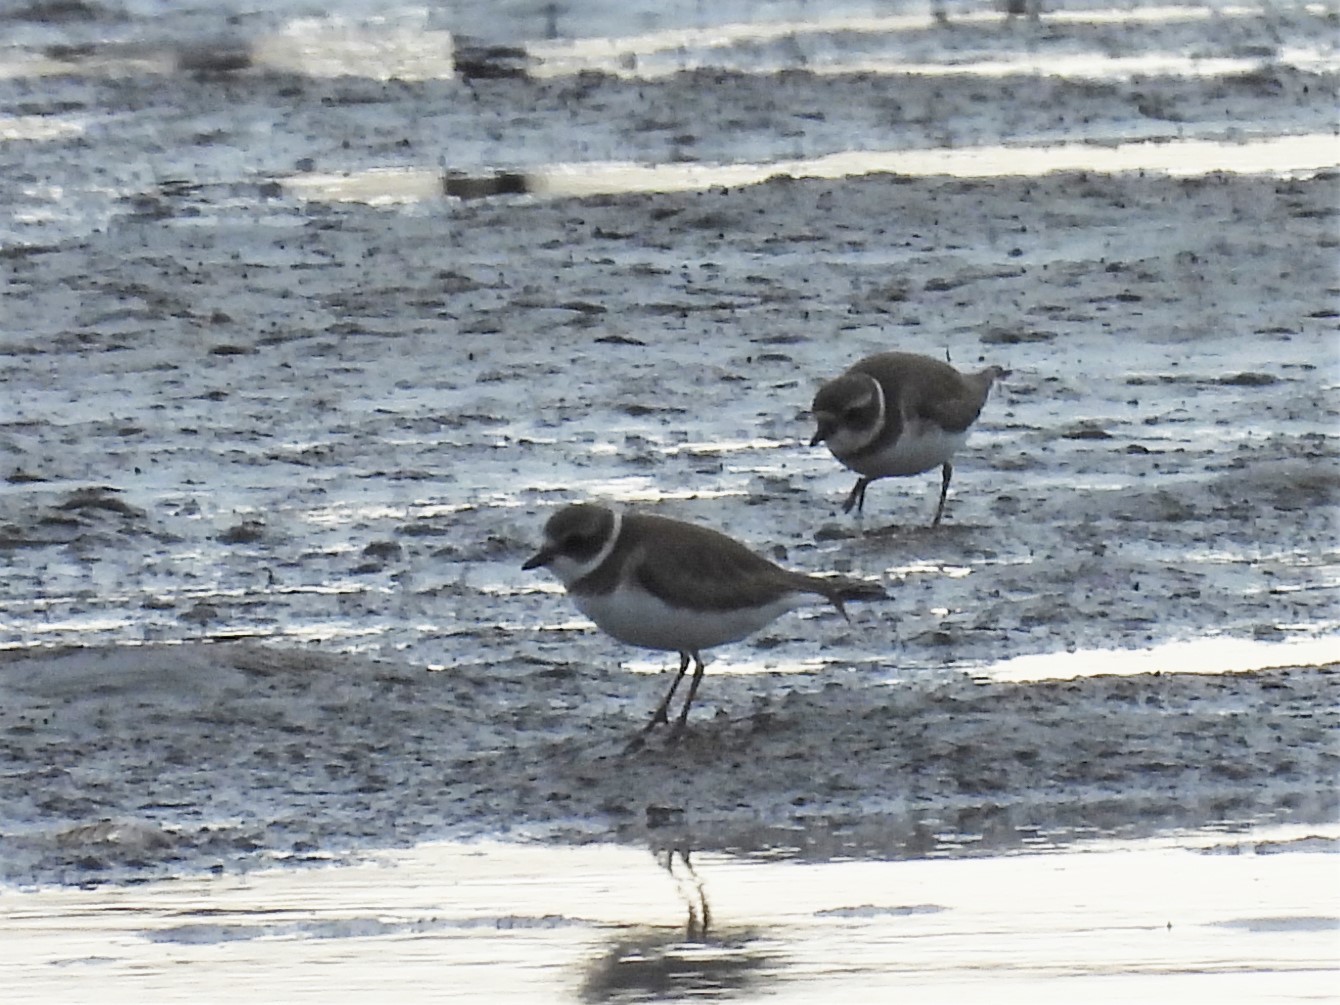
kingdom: Animalia
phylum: Chordata
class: Aves
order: Charadriiformes
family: Charadriidae
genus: Charadrius
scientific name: Charadrius semipalmatus
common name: Semipalmated plover
